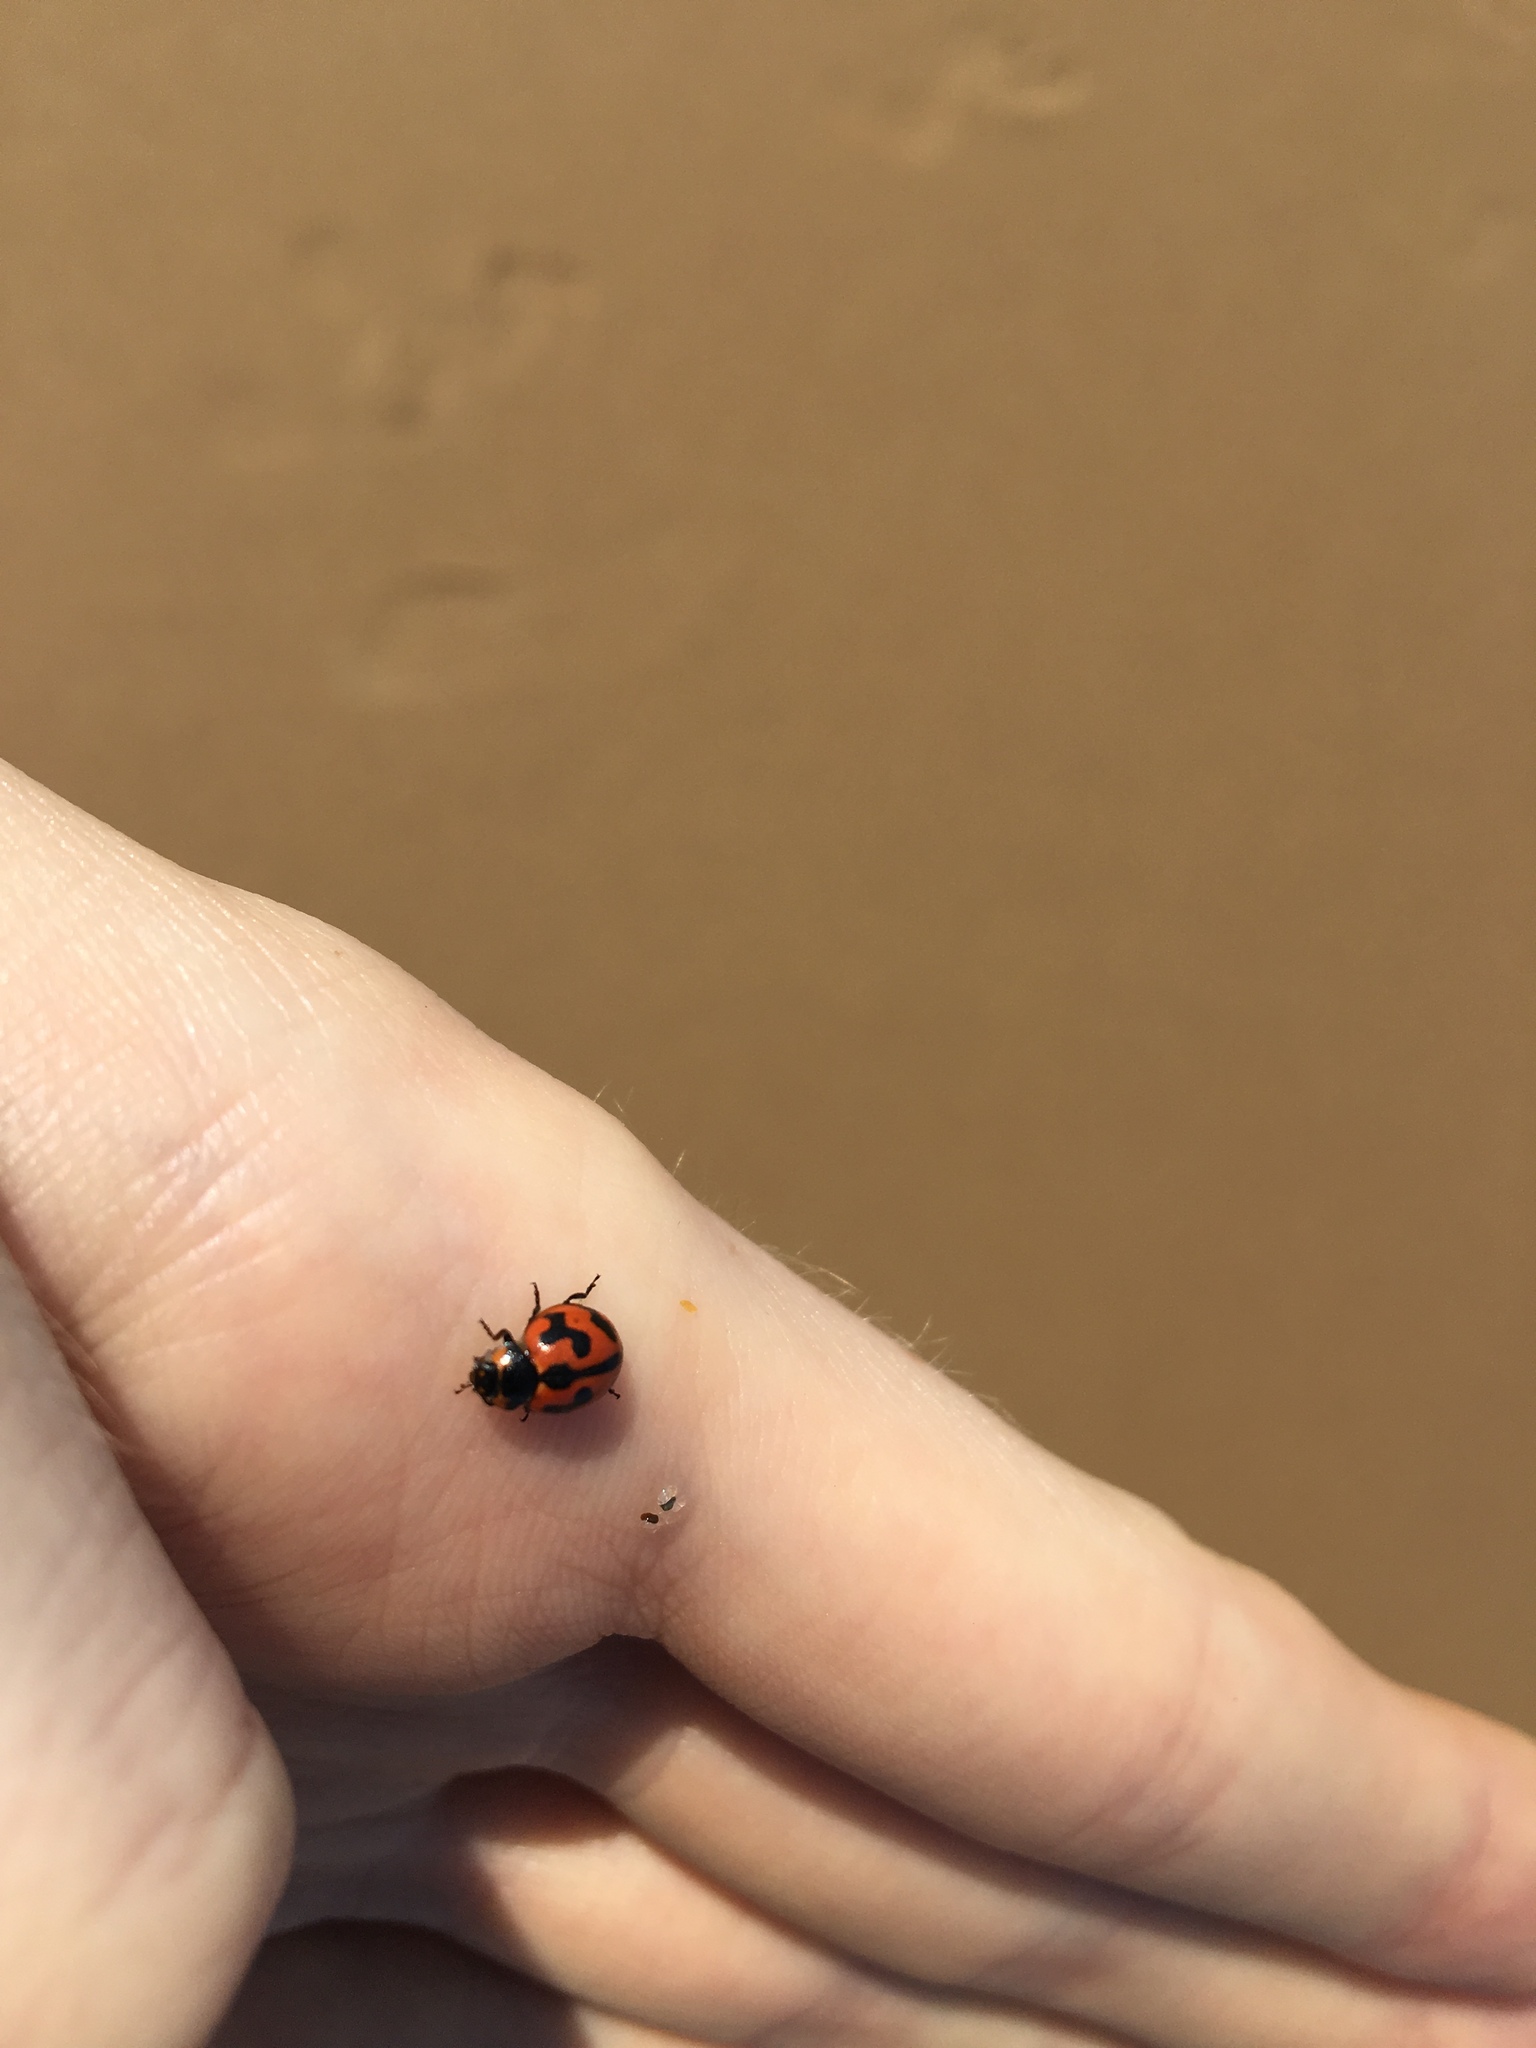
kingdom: Animalia
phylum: Arthropoda
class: Insecta
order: Coleoptera
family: Coccinellidae
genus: Coccinella
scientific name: Coccinella transversalis
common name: Transverse lady beetle
